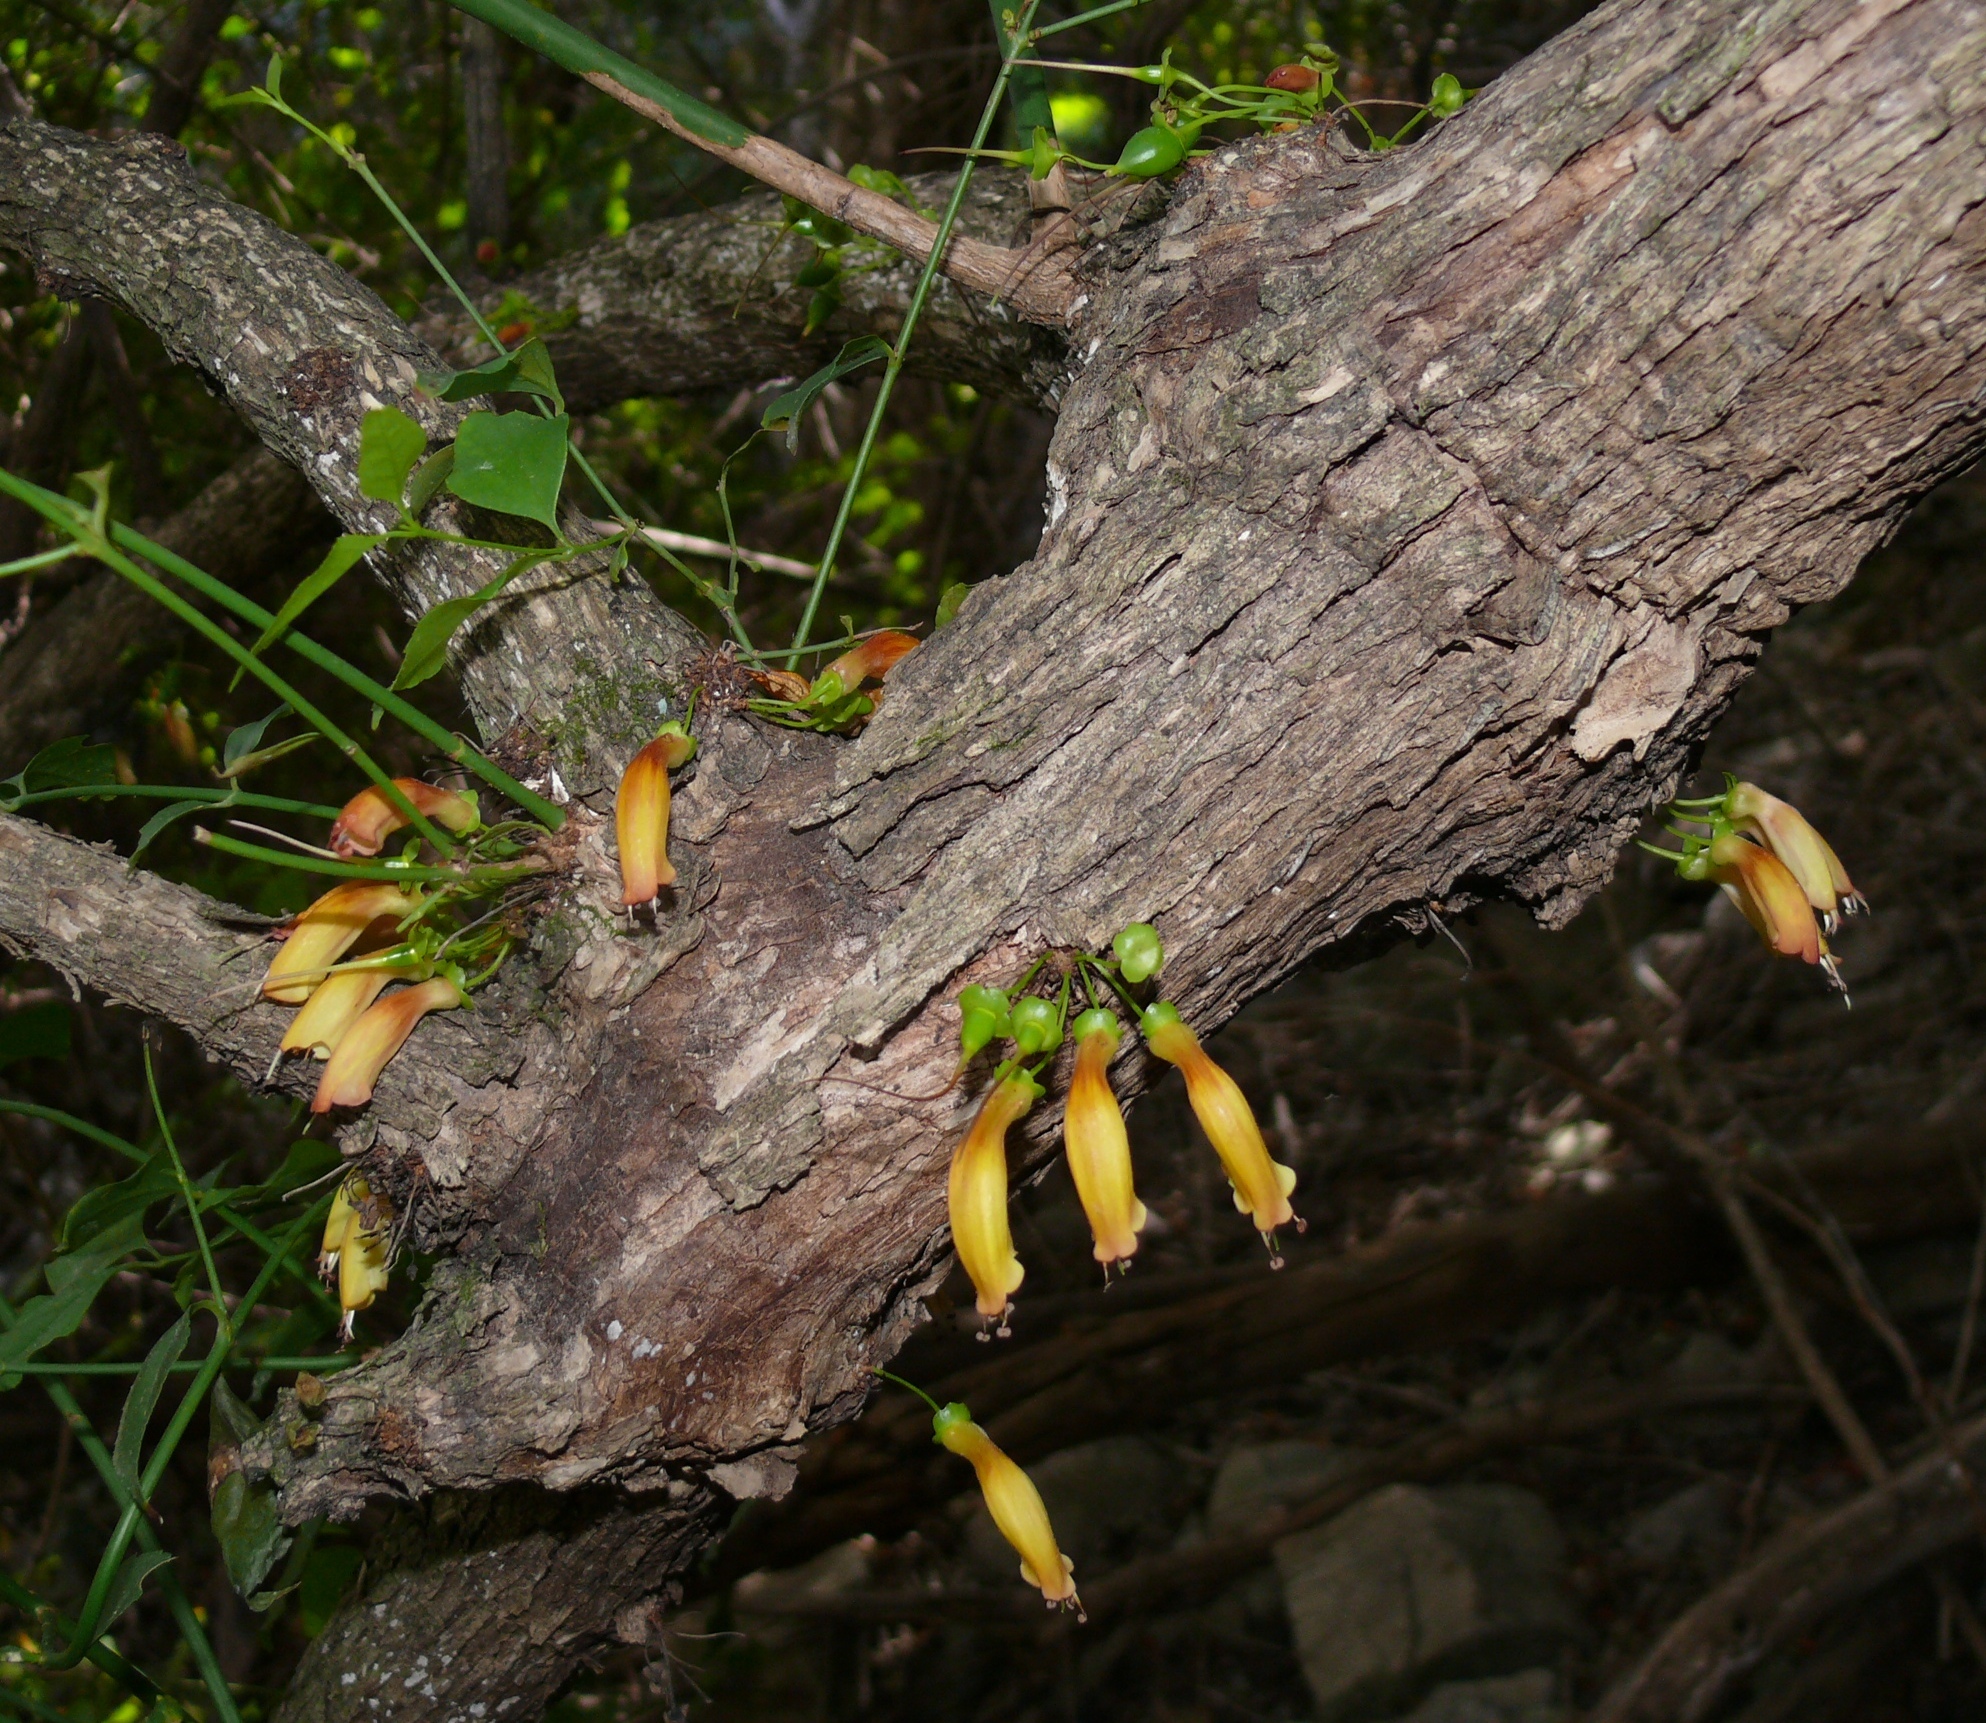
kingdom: Plantae
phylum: Tracheophyta
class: Magnoliopsida
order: Lamiales
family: Stilbaceae
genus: Halleria
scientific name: Halleria lucida
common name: Tree fuschia
